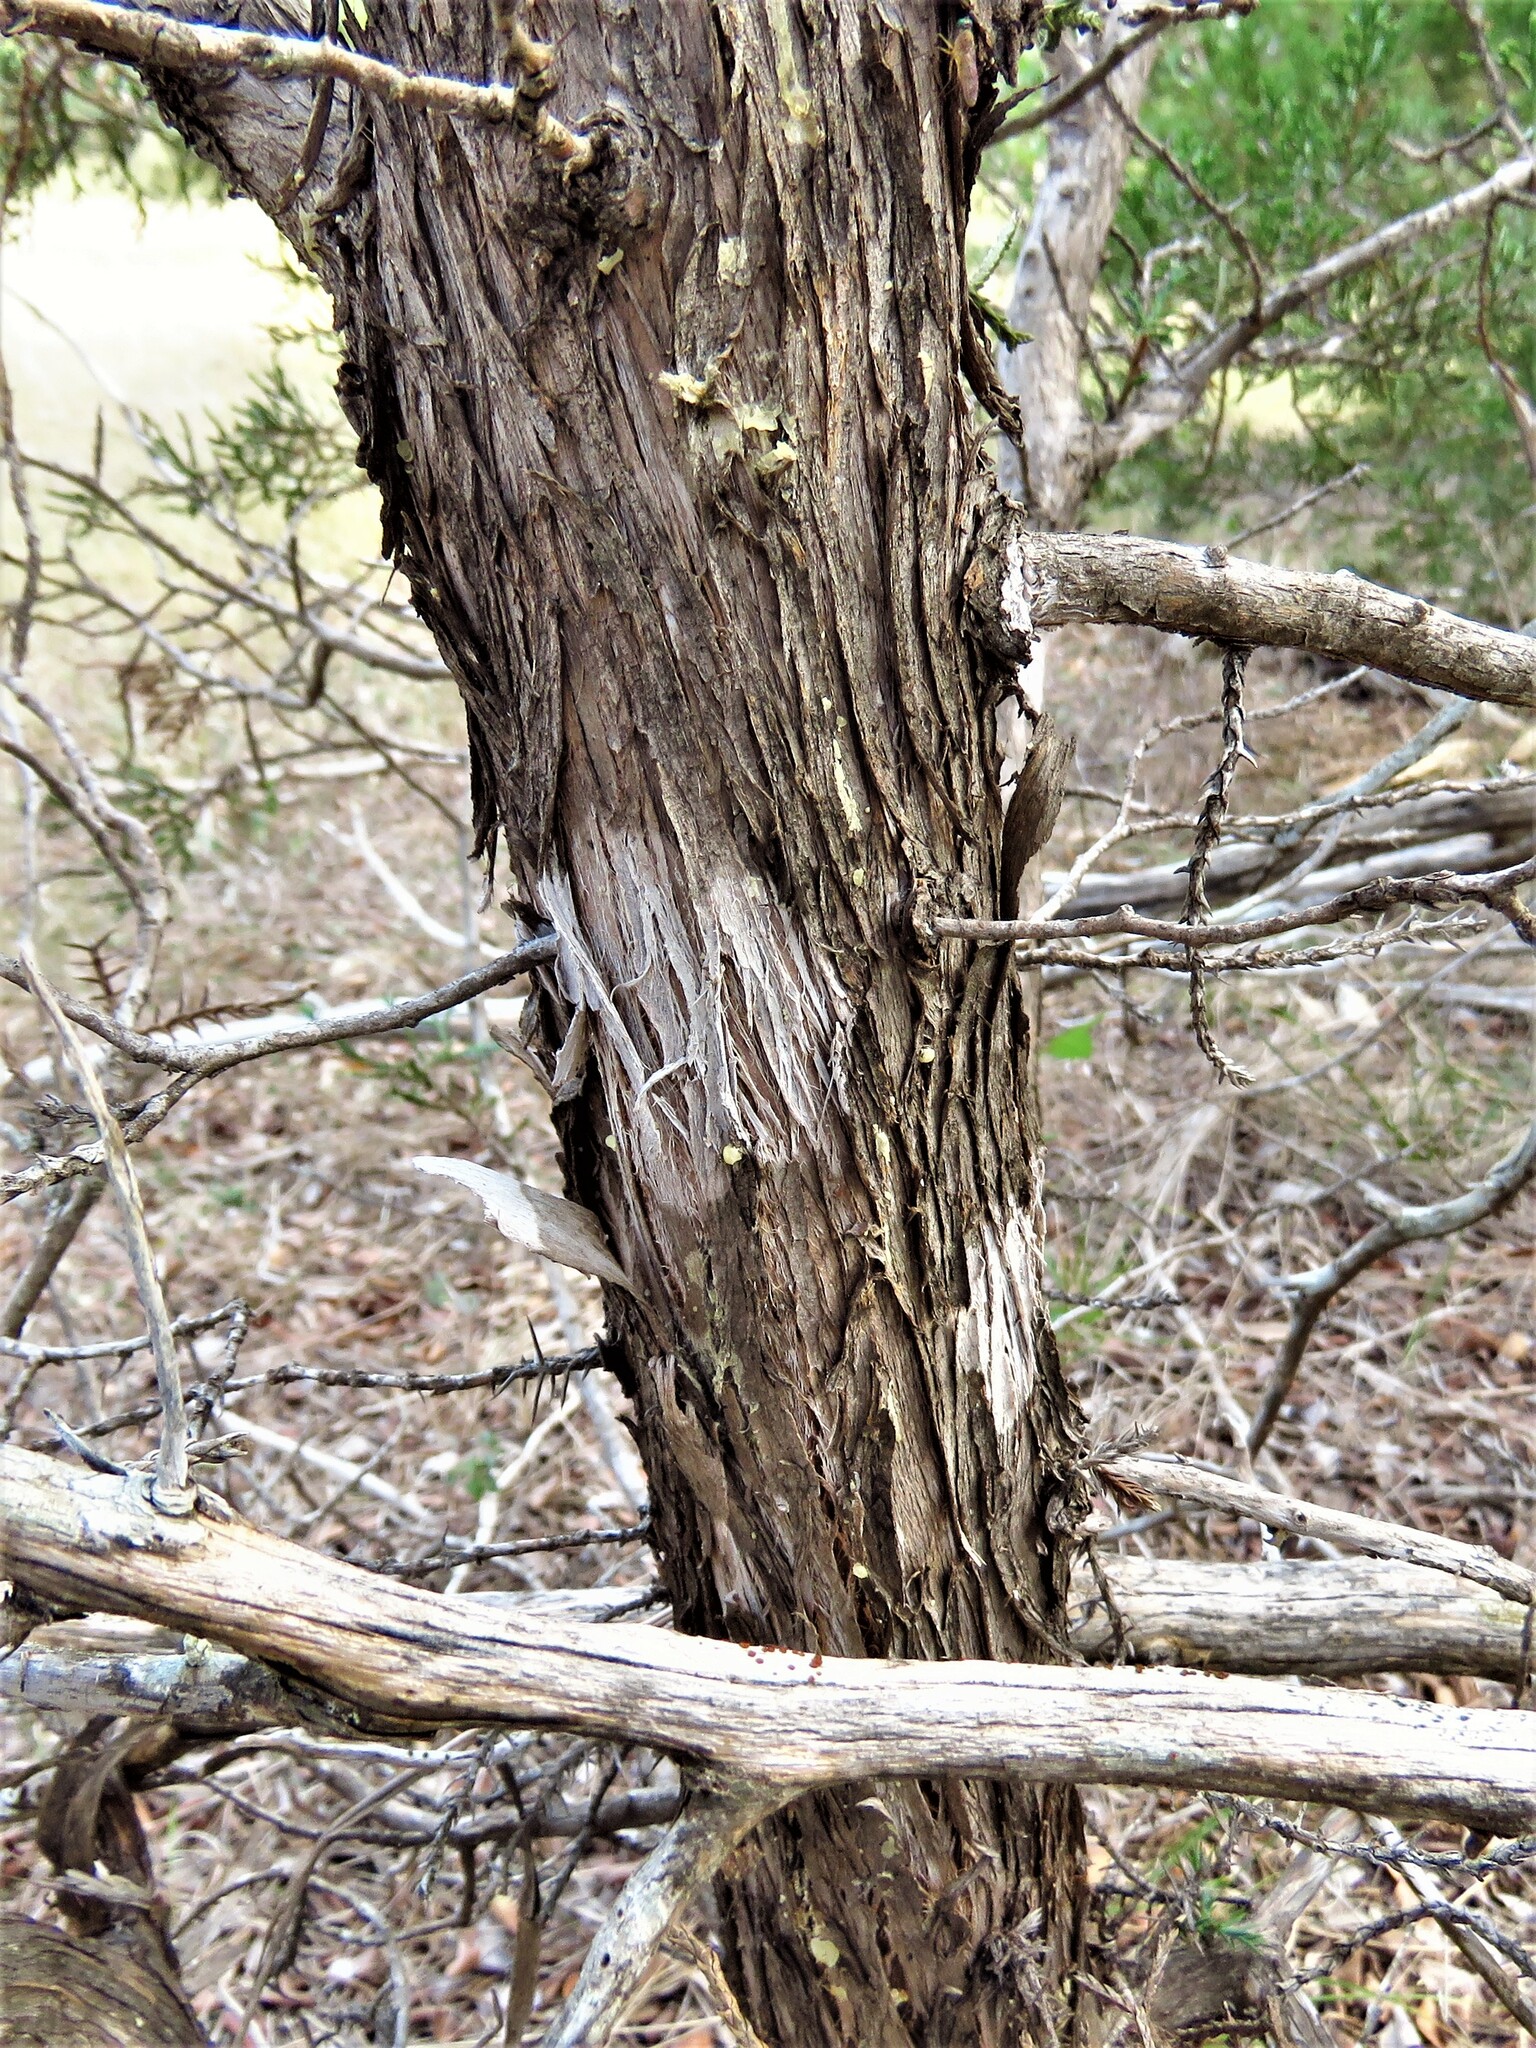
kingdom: Fungi
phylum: Ascomycota
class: Lecanoromycetes
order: Ostropales
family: Stictidaceae
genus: Robergea
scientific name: Robergea
